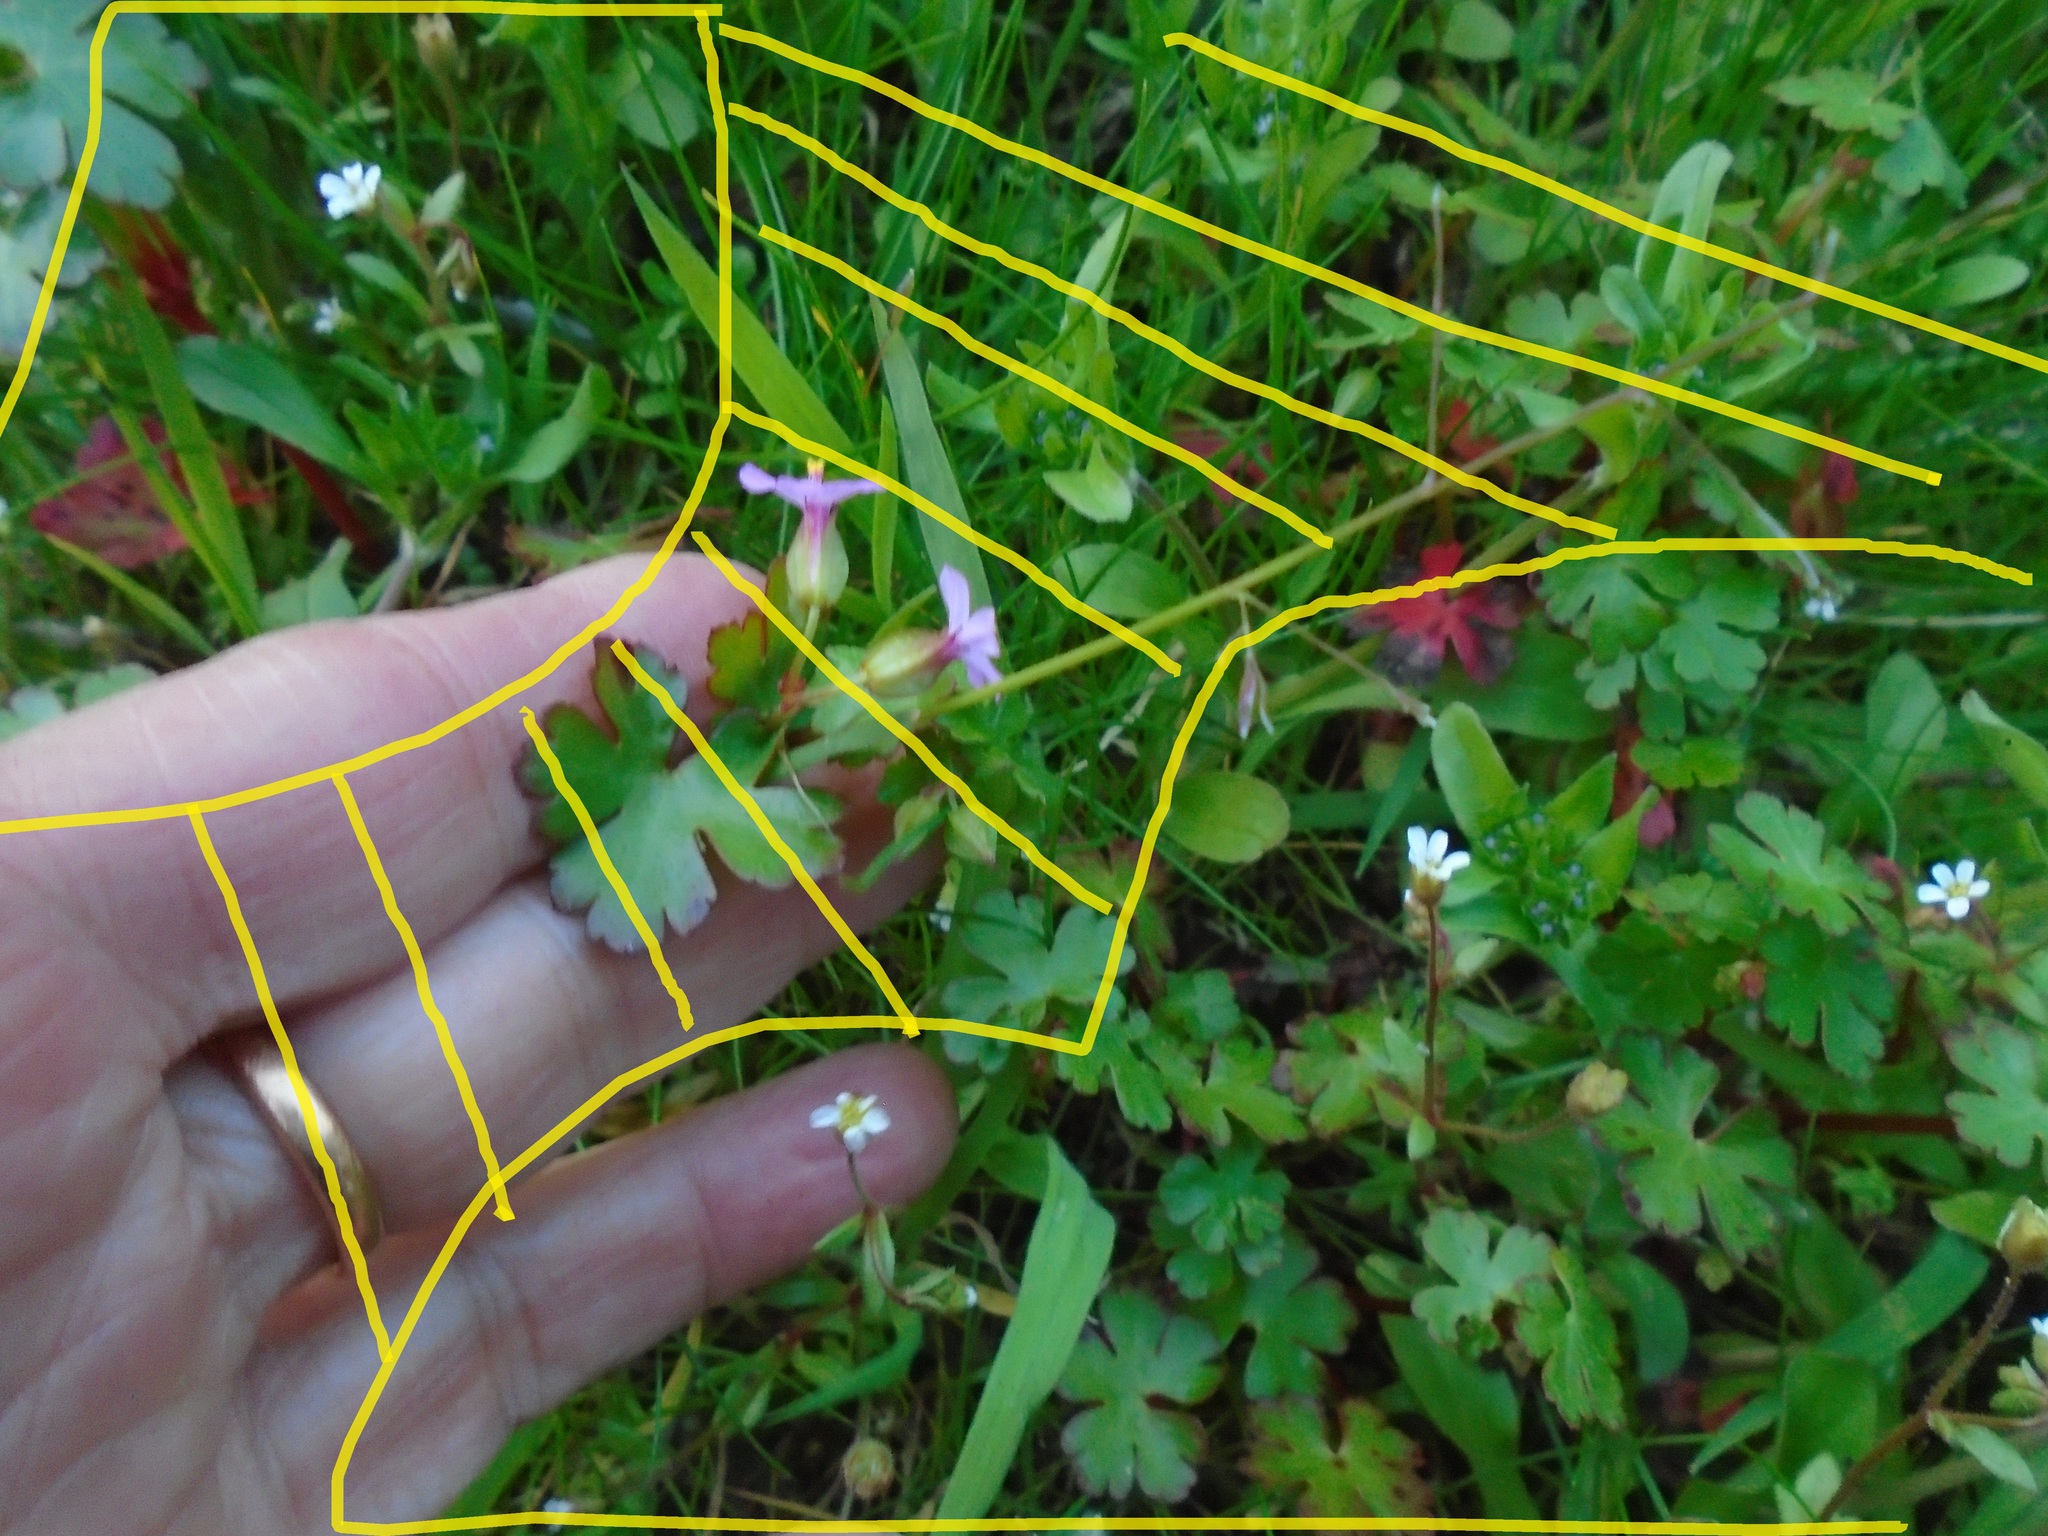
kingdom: Plantae
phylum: Tracheophyta
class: Magnoliopsida
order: Saxifragales
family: Saxifragaceae
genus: Saxifraga
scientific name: Saxifraga tridactylites
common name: Rue-leaved saxifrage
